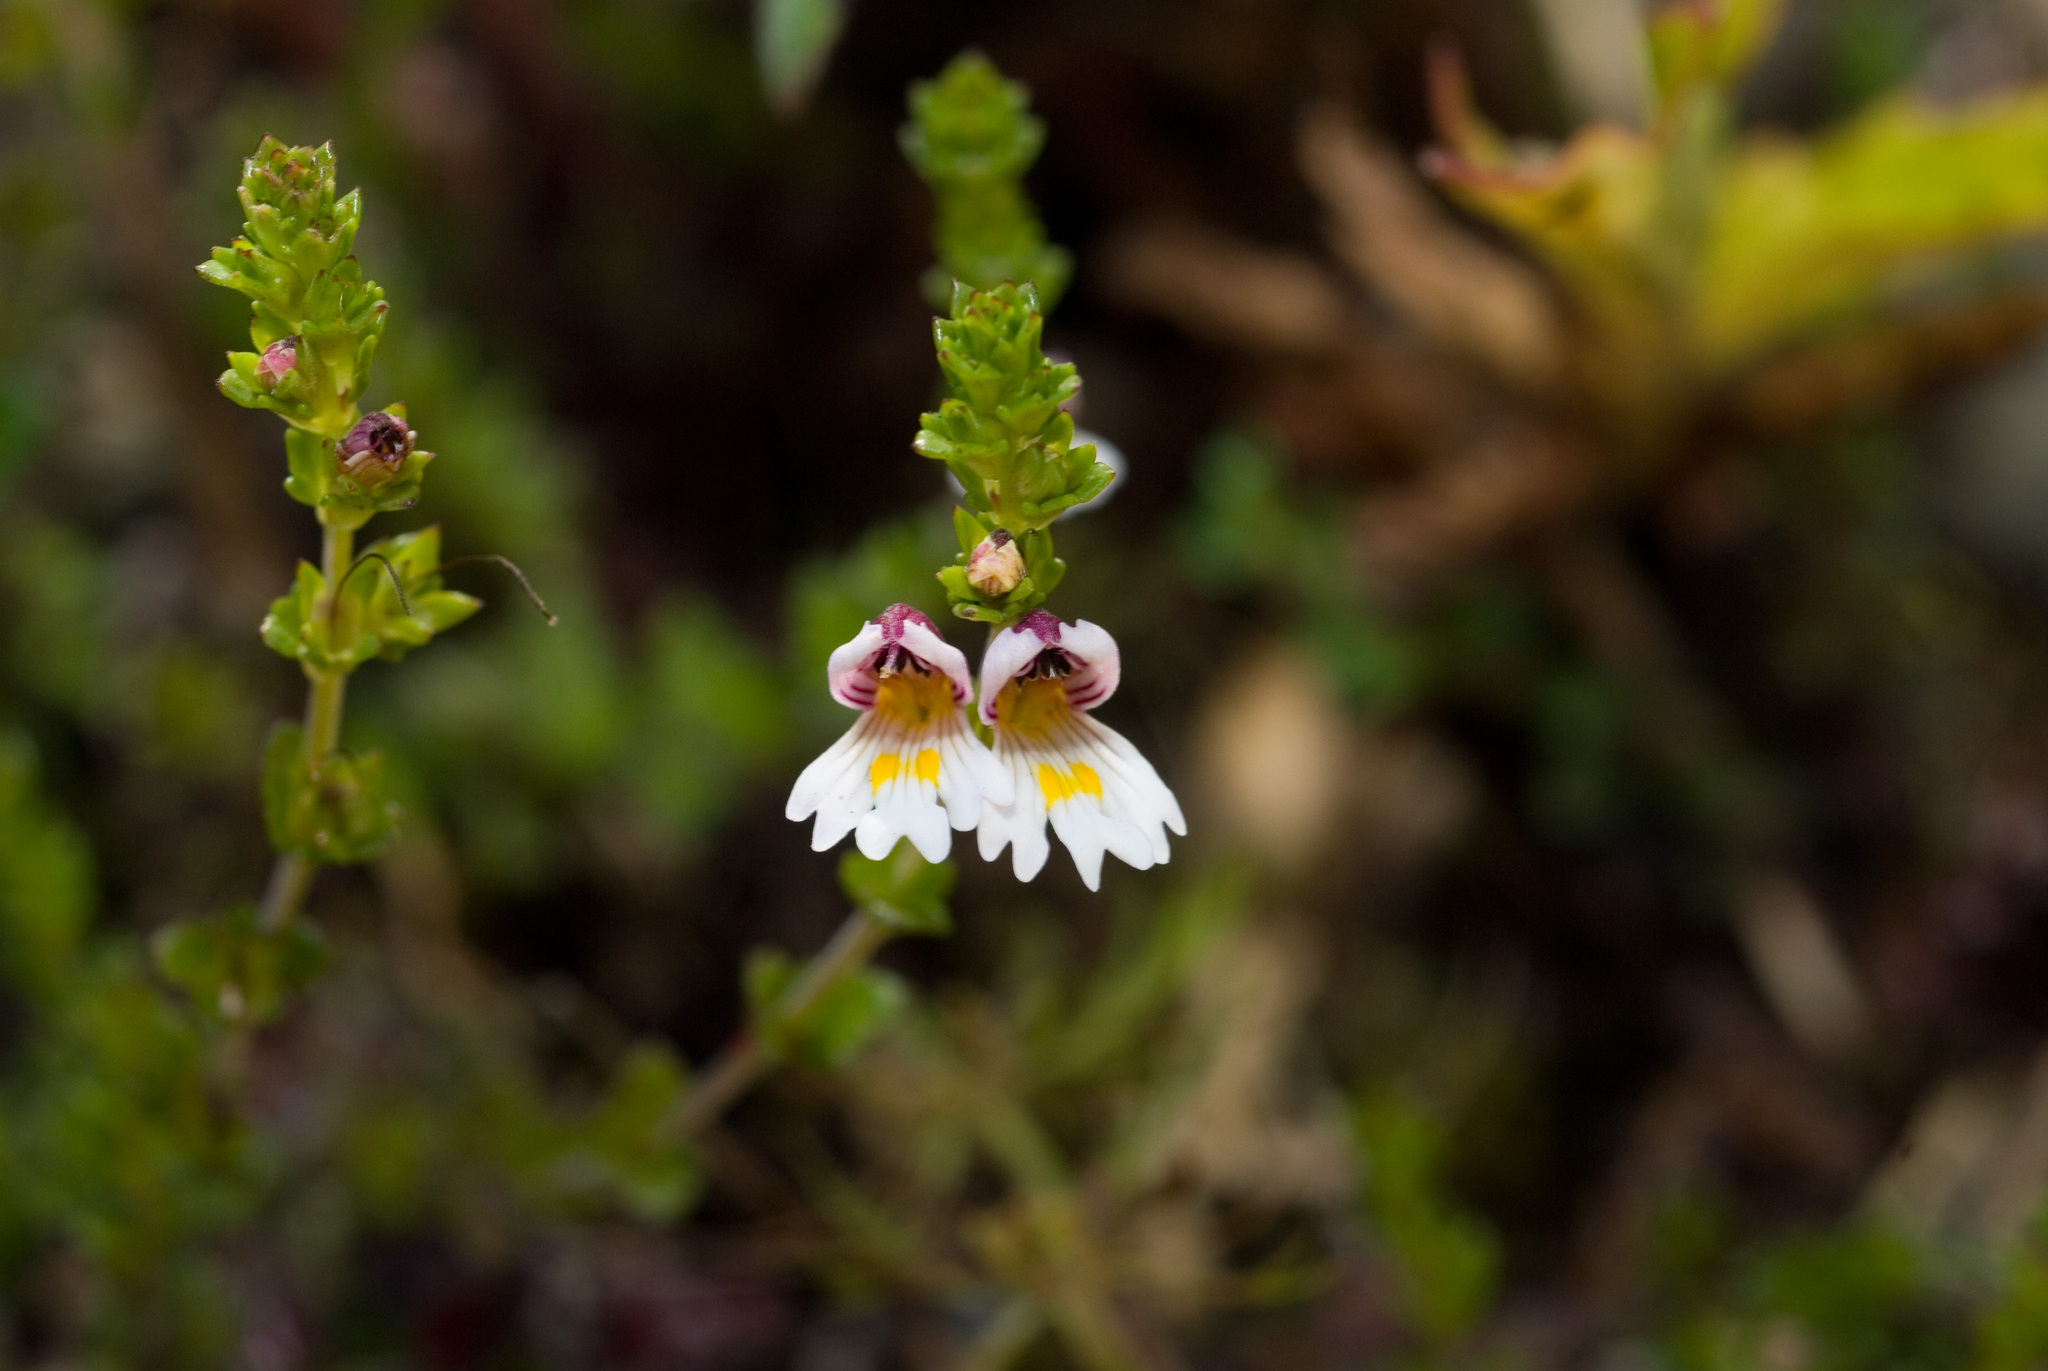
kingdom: Plantae
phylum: Tracheophyta
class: Magnoliopsida
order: Lamiales
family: Orobanchaceae
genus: Euphrasia
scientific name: Euphrasia transmorrisonensis
